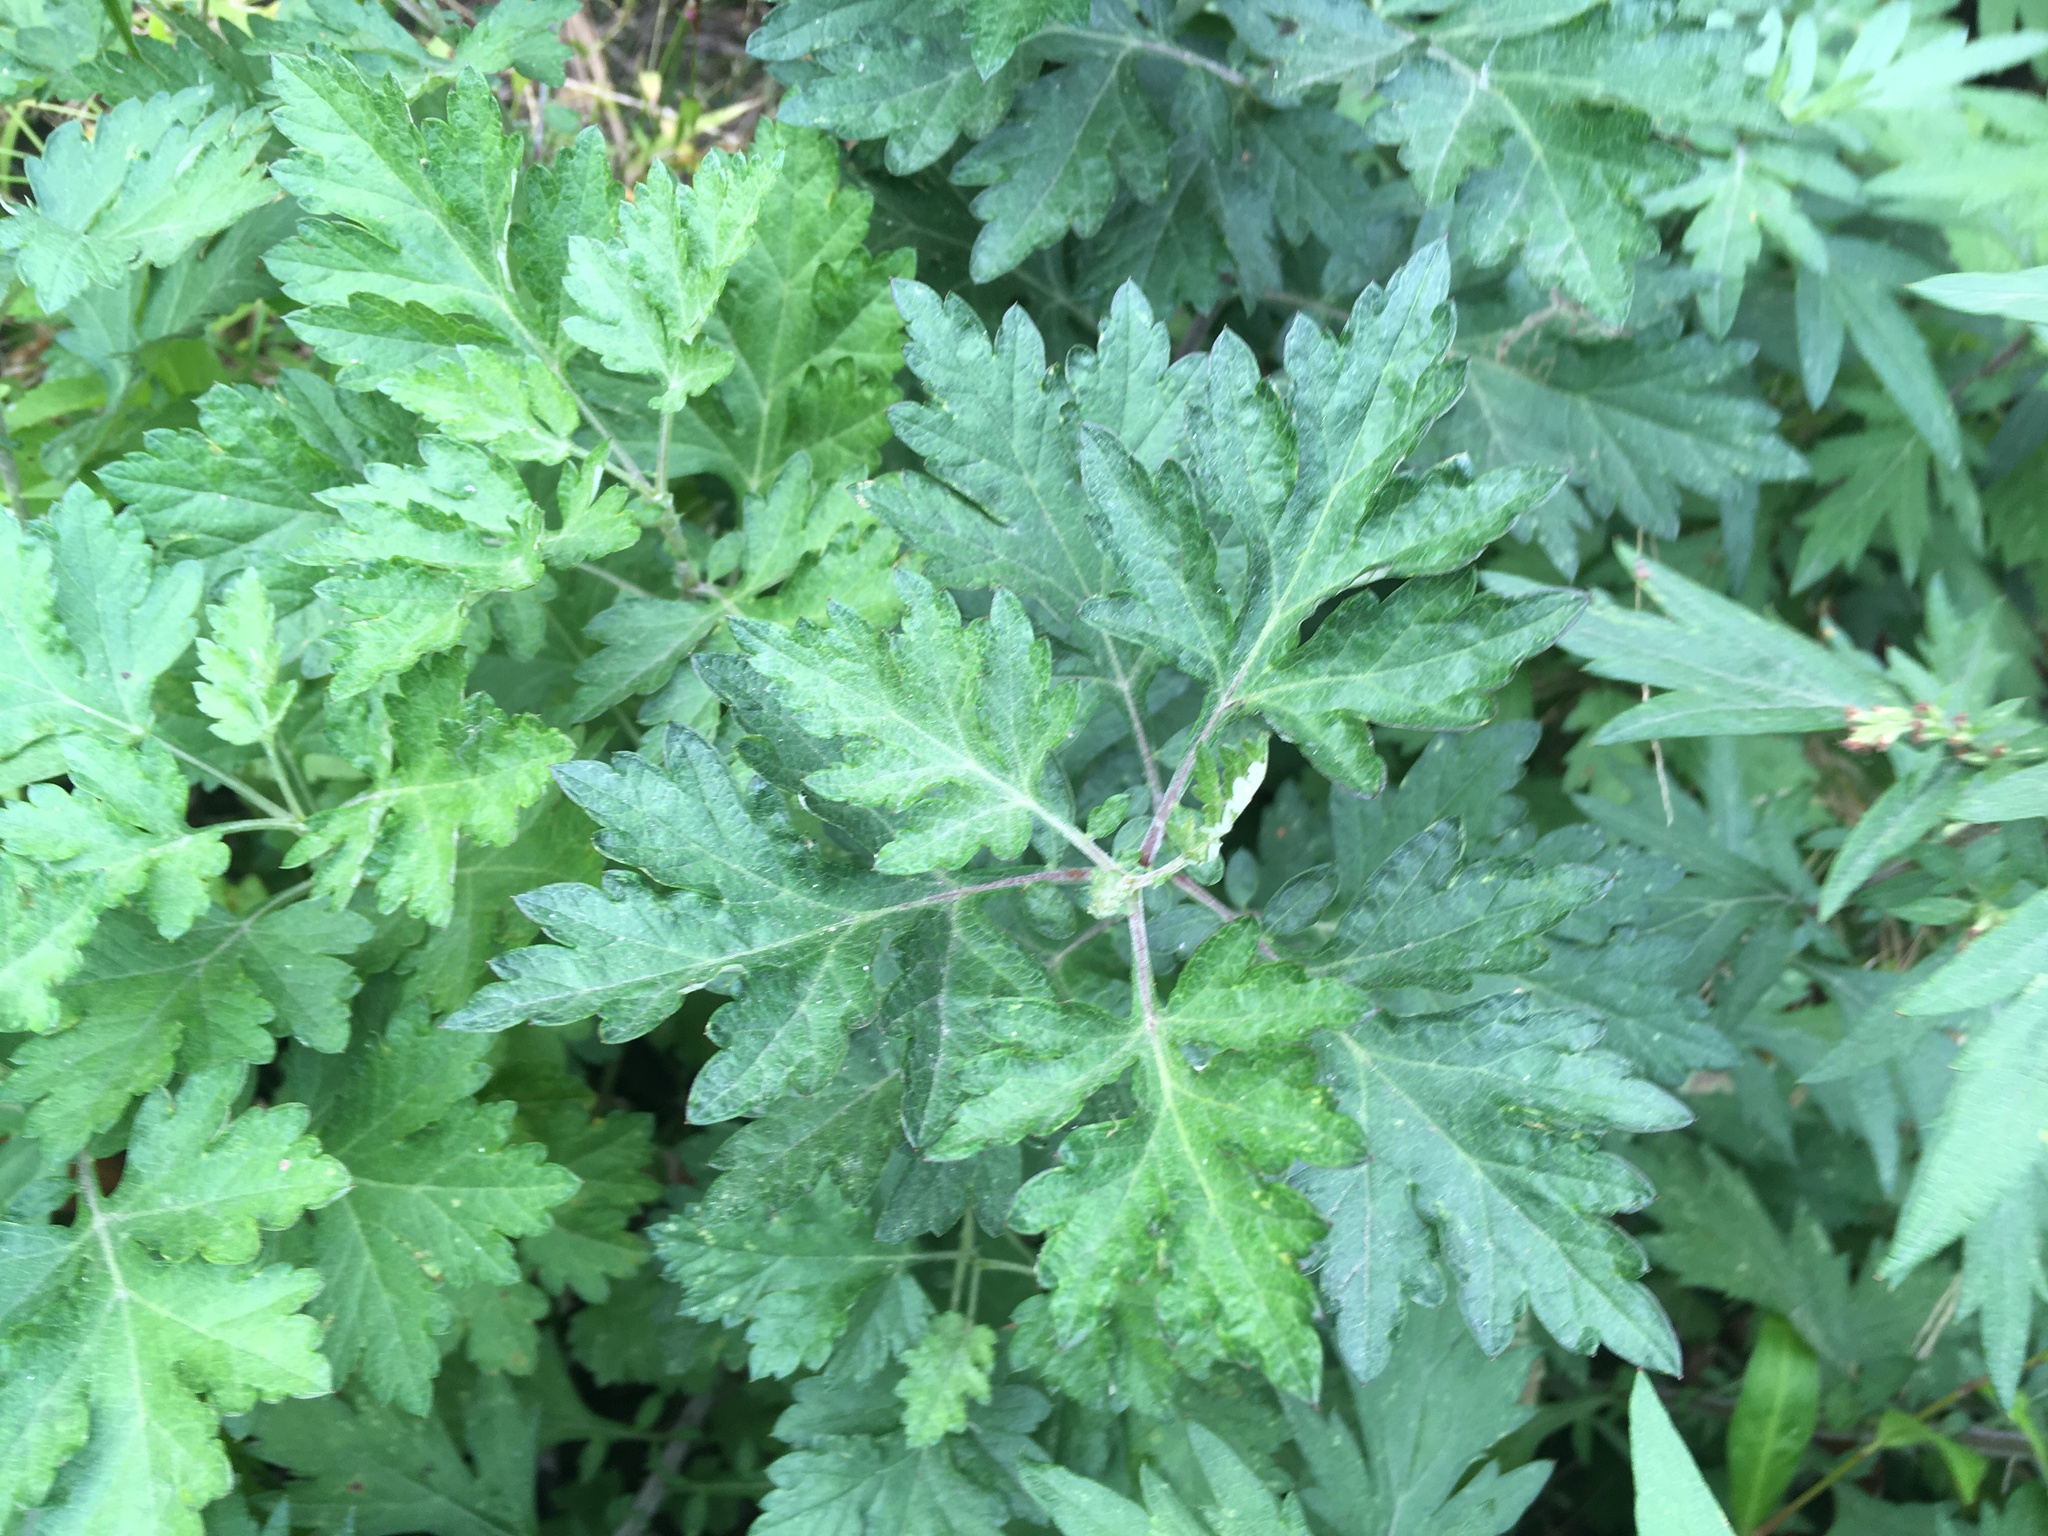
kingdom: Plantae
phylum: Tracheophyta
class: Magnoliopsida
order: Asterales
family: Asteraceae
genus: Artemisia
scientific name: Artemisia vulgaris
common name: Mugwort
